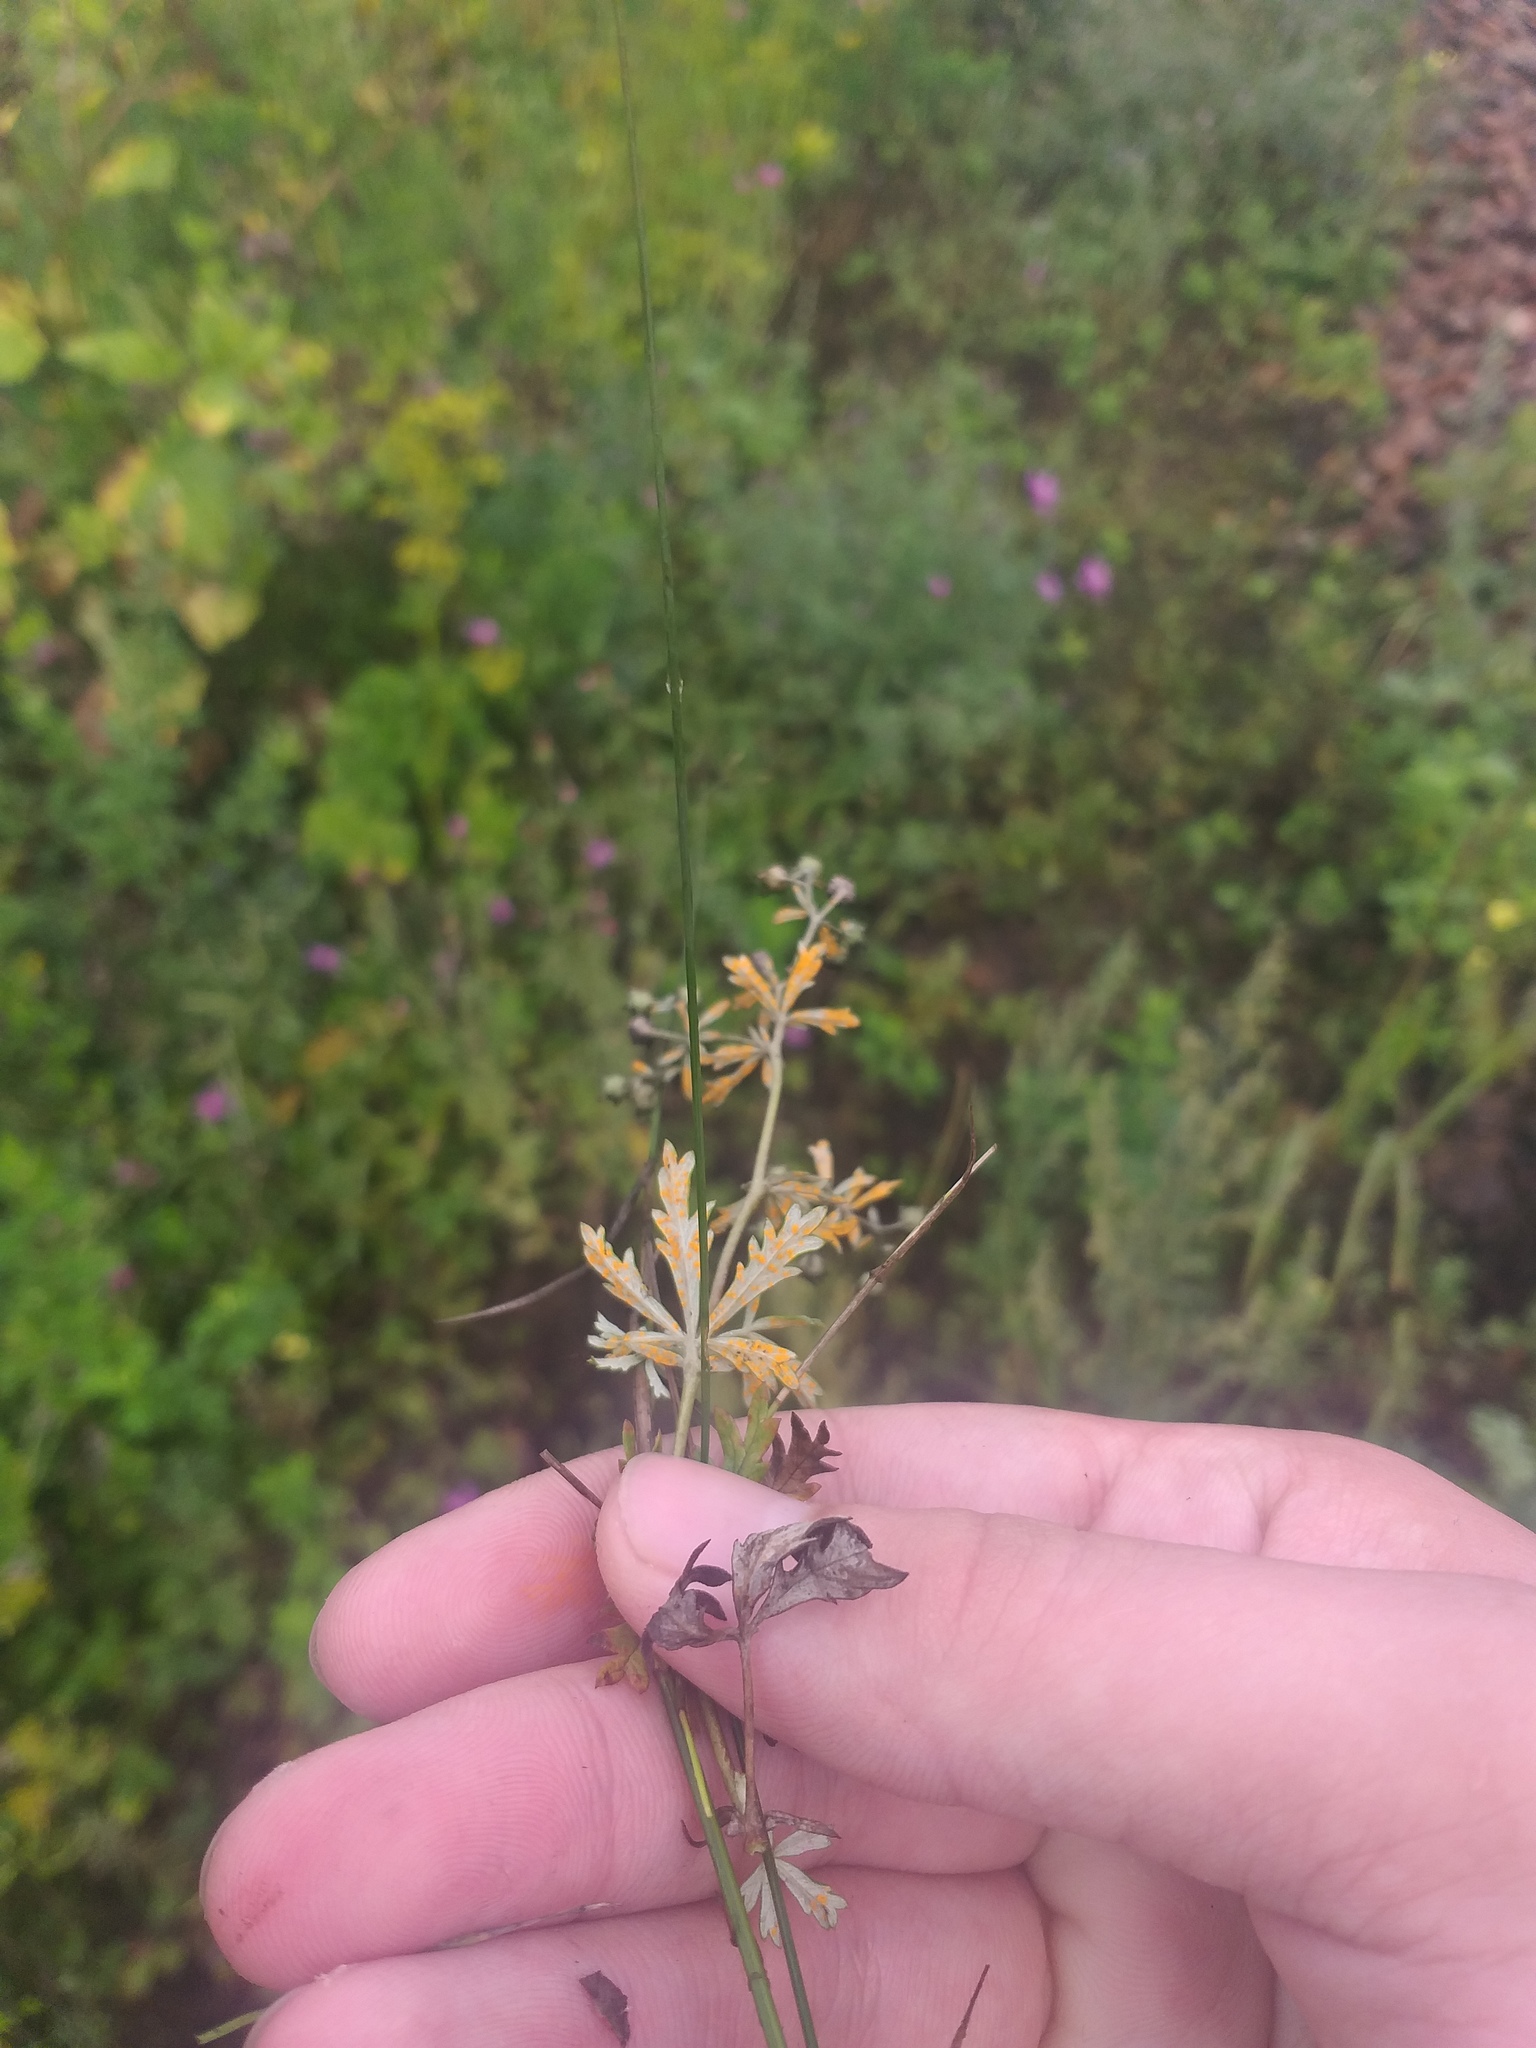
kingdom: Plantae
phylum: Tracheophyta
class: Magnoliopsida
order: Rosales
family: Rosaceae
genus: Potentilla
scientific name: Potentilla argentea
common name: Hoary cinquefoil
